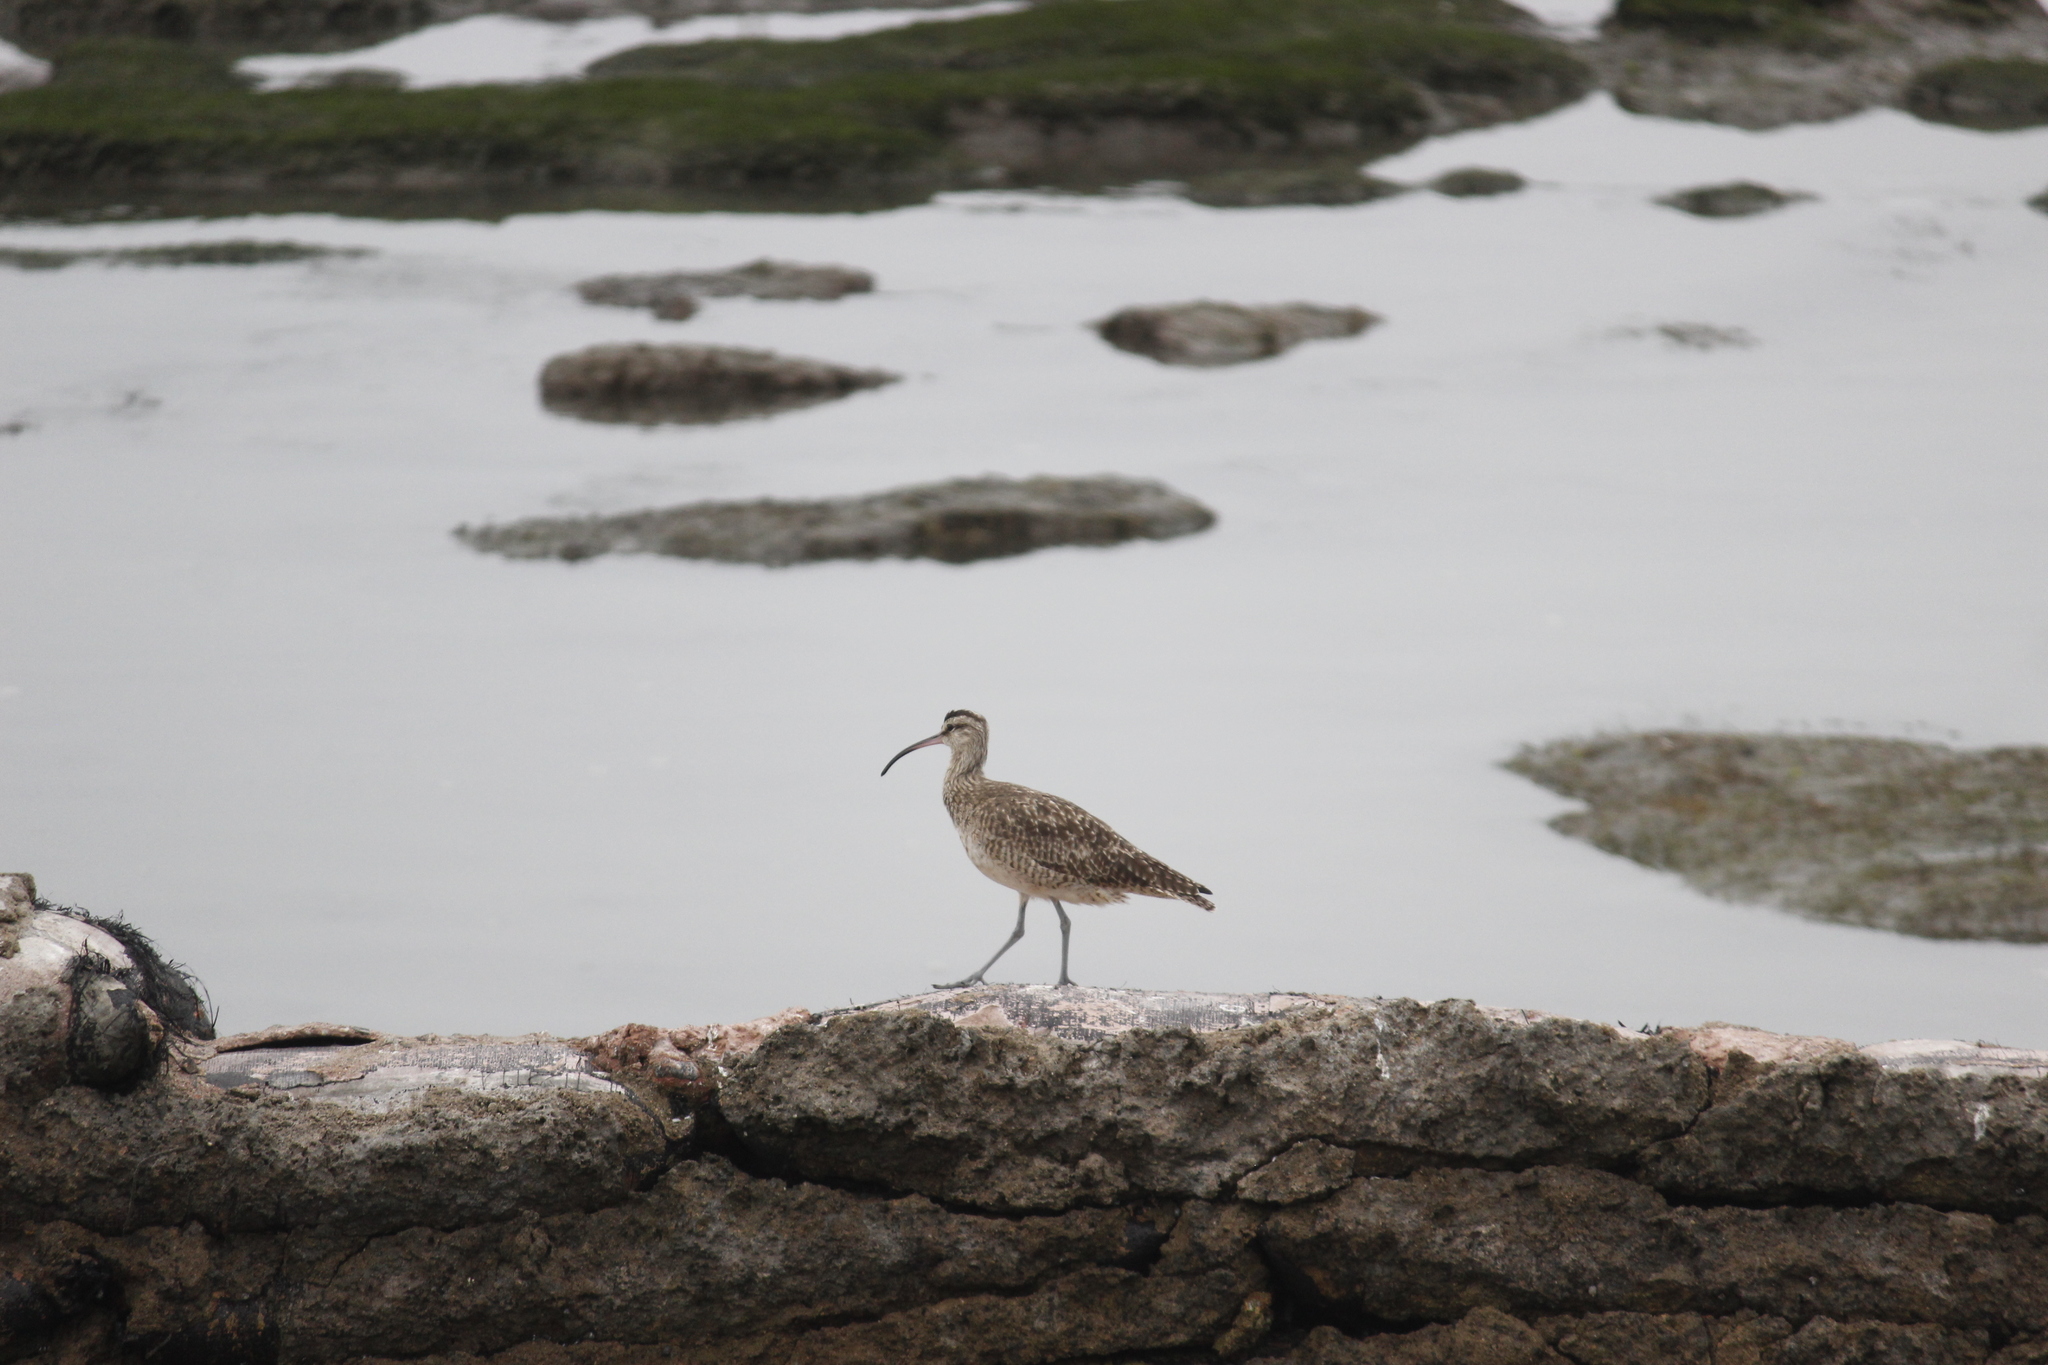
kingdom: Animalia
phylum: Chordata
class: Aves
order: Charadriiformes
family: Scolopacidae
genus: Numenius
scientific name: Numenius phaeopus
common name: Whimbrel
